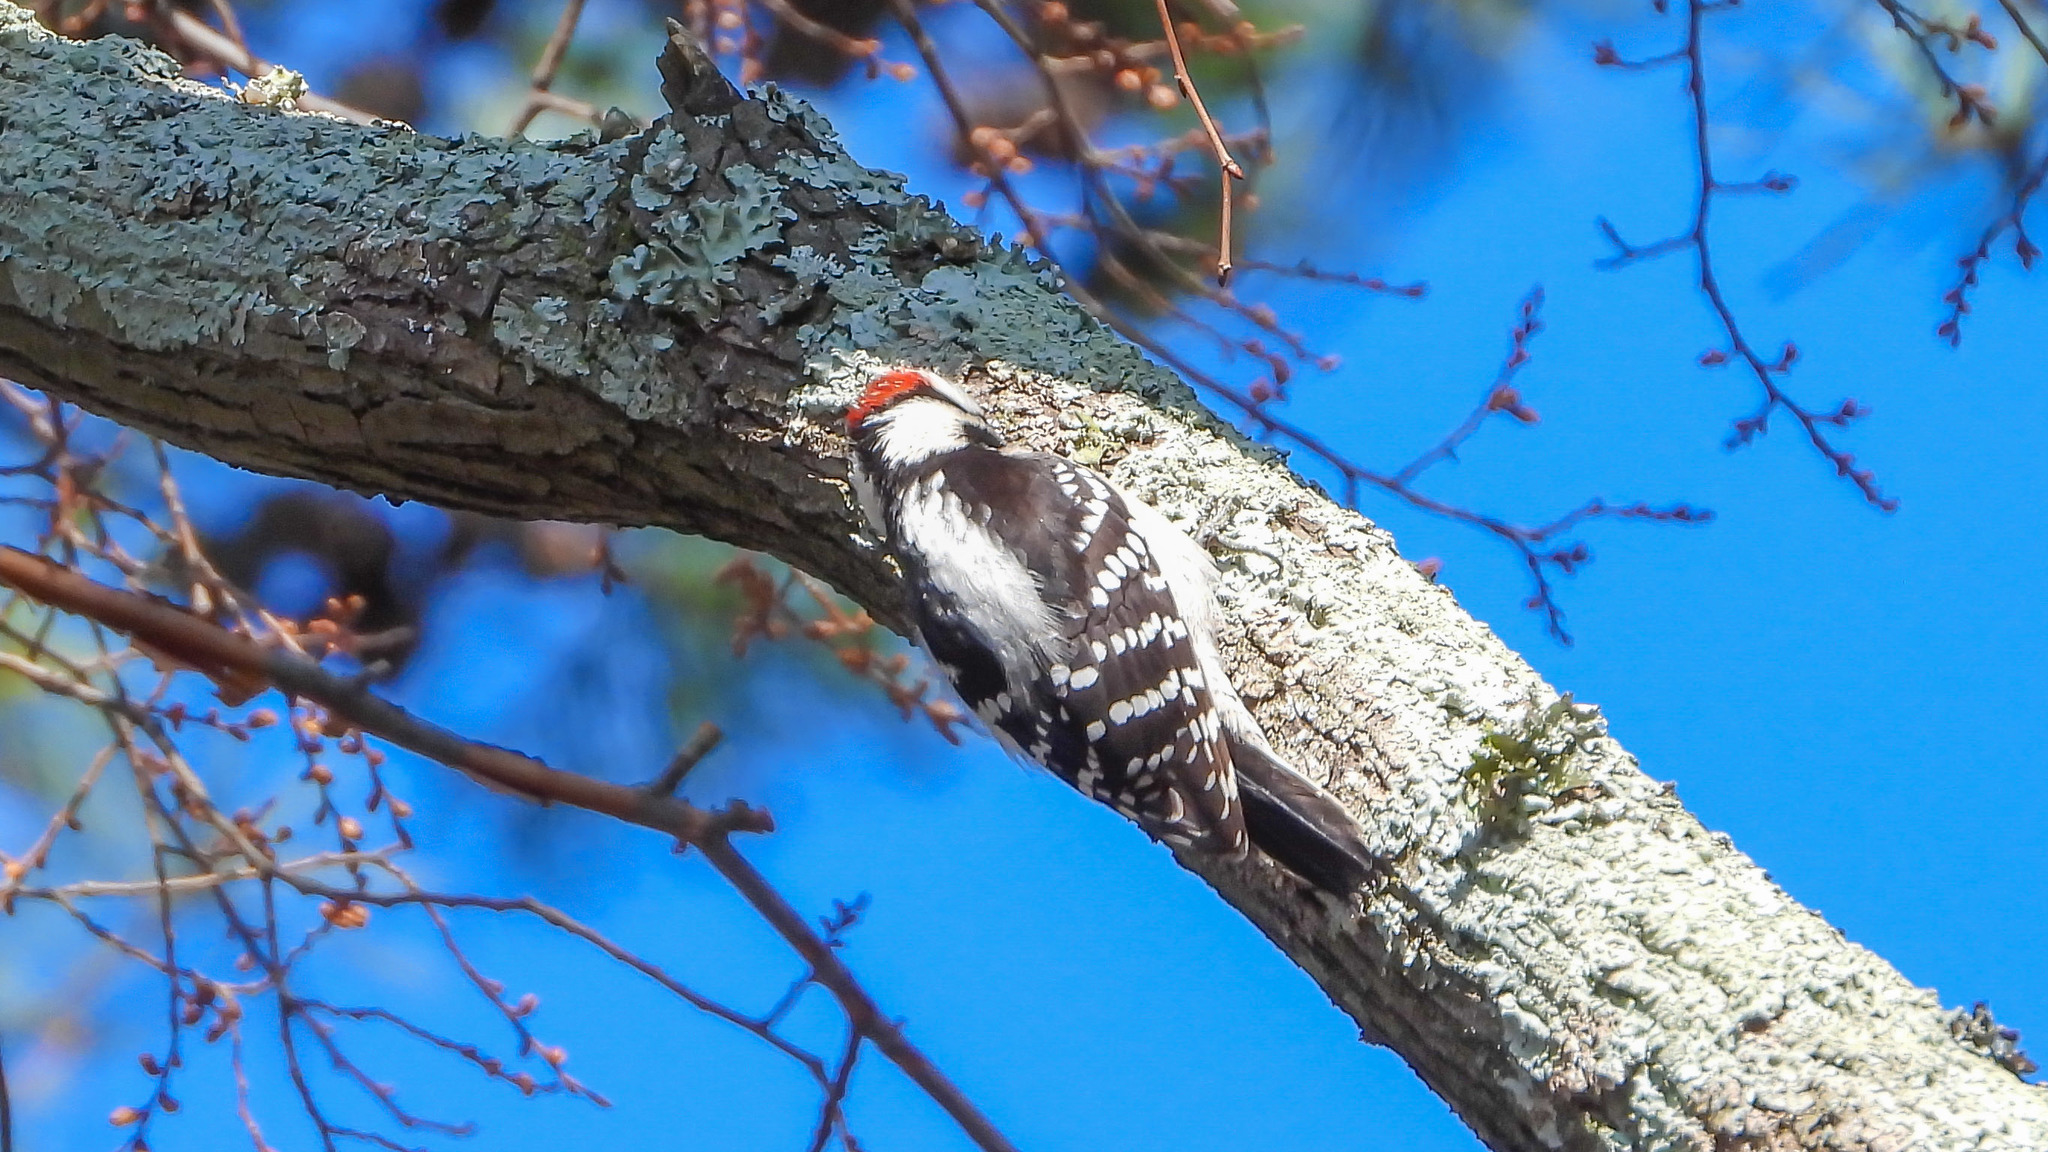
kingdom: Animalia
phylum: Chordata
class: Aves
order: Piciformes
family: Picidae
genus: Dryobates
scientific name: Dryobates pubescens
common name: Downy woodpecker
